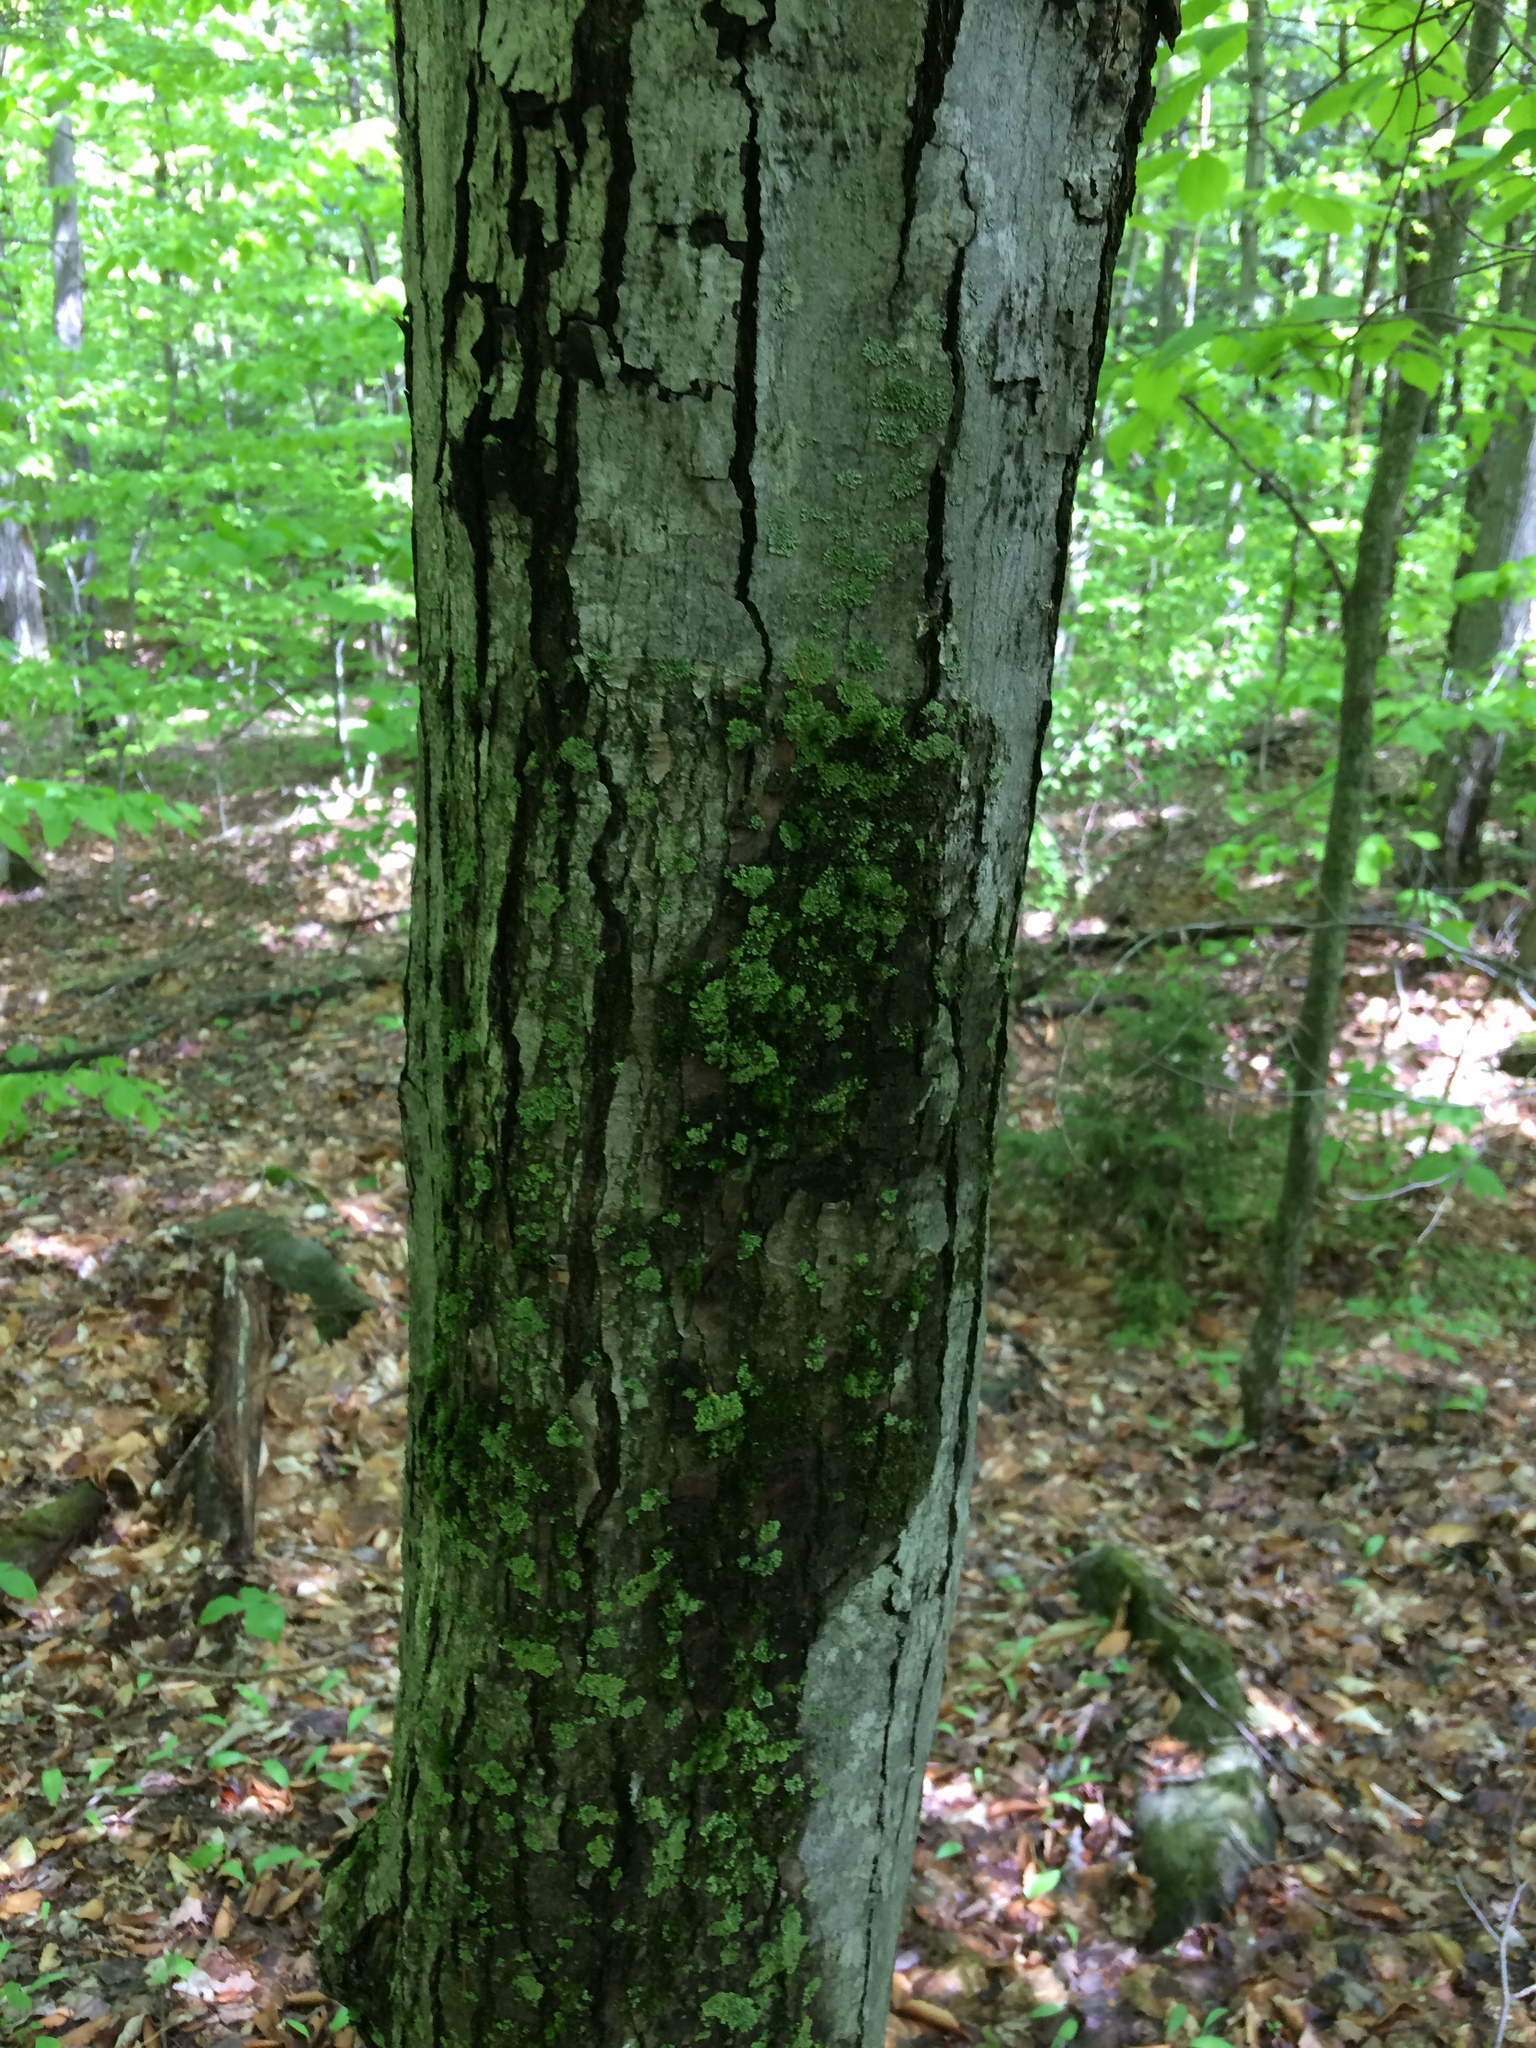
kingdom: Plantae
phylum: Tracheophyta
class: Magnoliopsida
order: Sapindales
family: Sapindaceae
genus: Acer
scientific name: Acer rubrum
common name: Red maple
